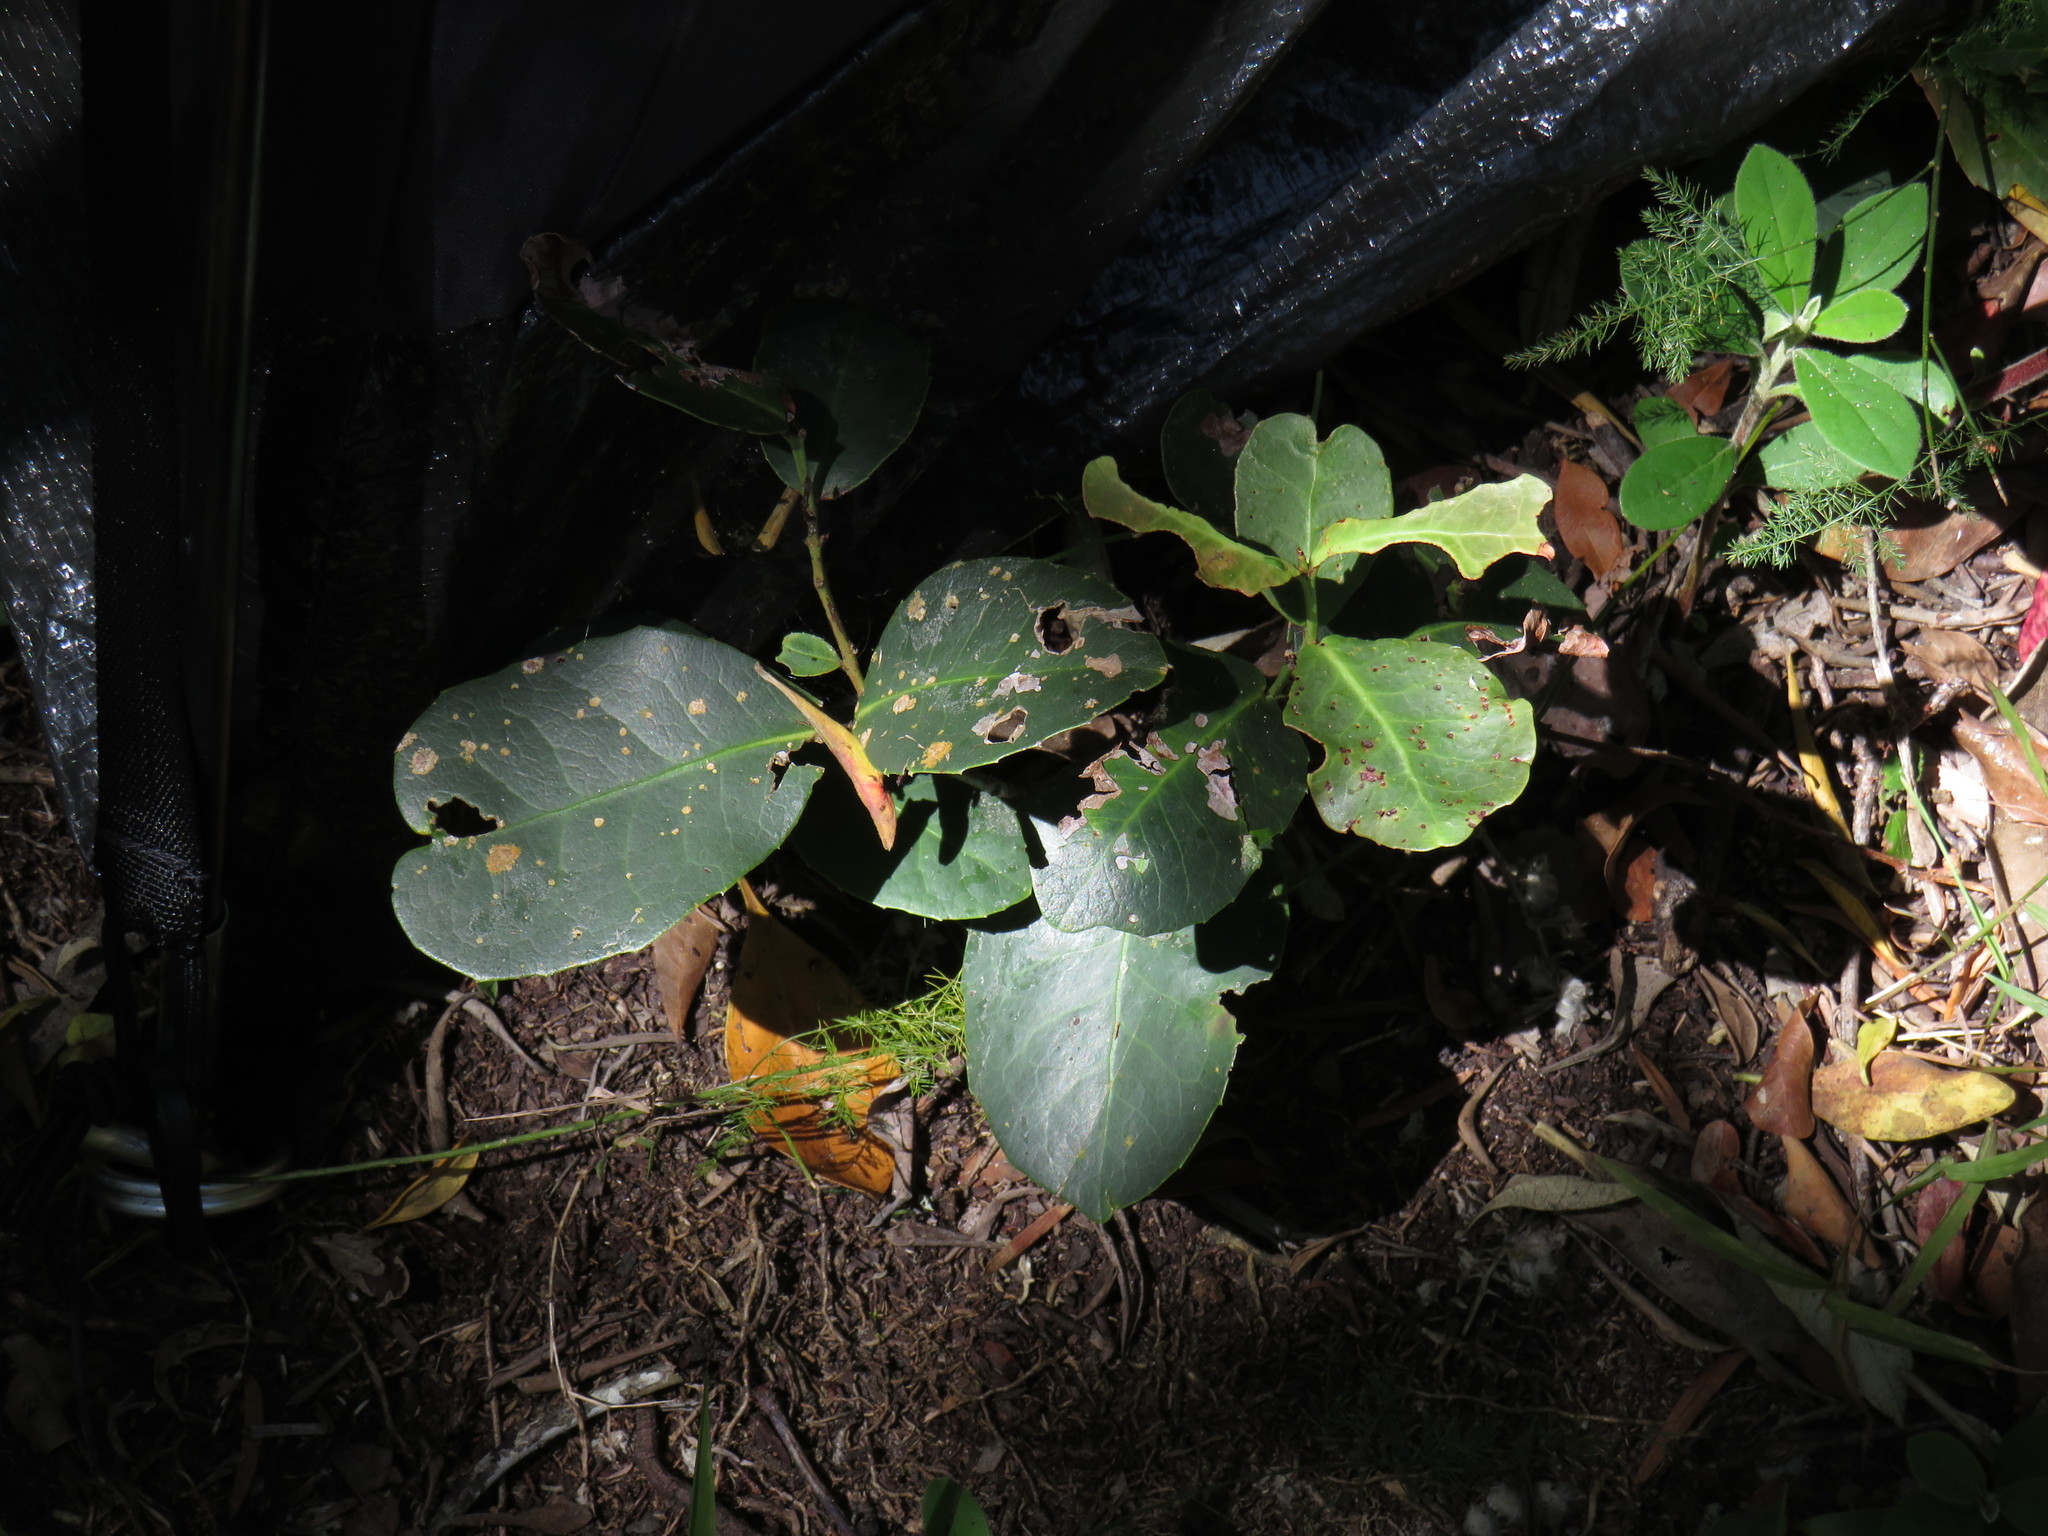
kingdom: Plantae
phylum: Tracheophyta
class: Magnoliopsida
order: Celastrales
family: Celastraceae
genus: Elaeodendron
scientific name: Elaeodendron croceum
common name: Saffron
